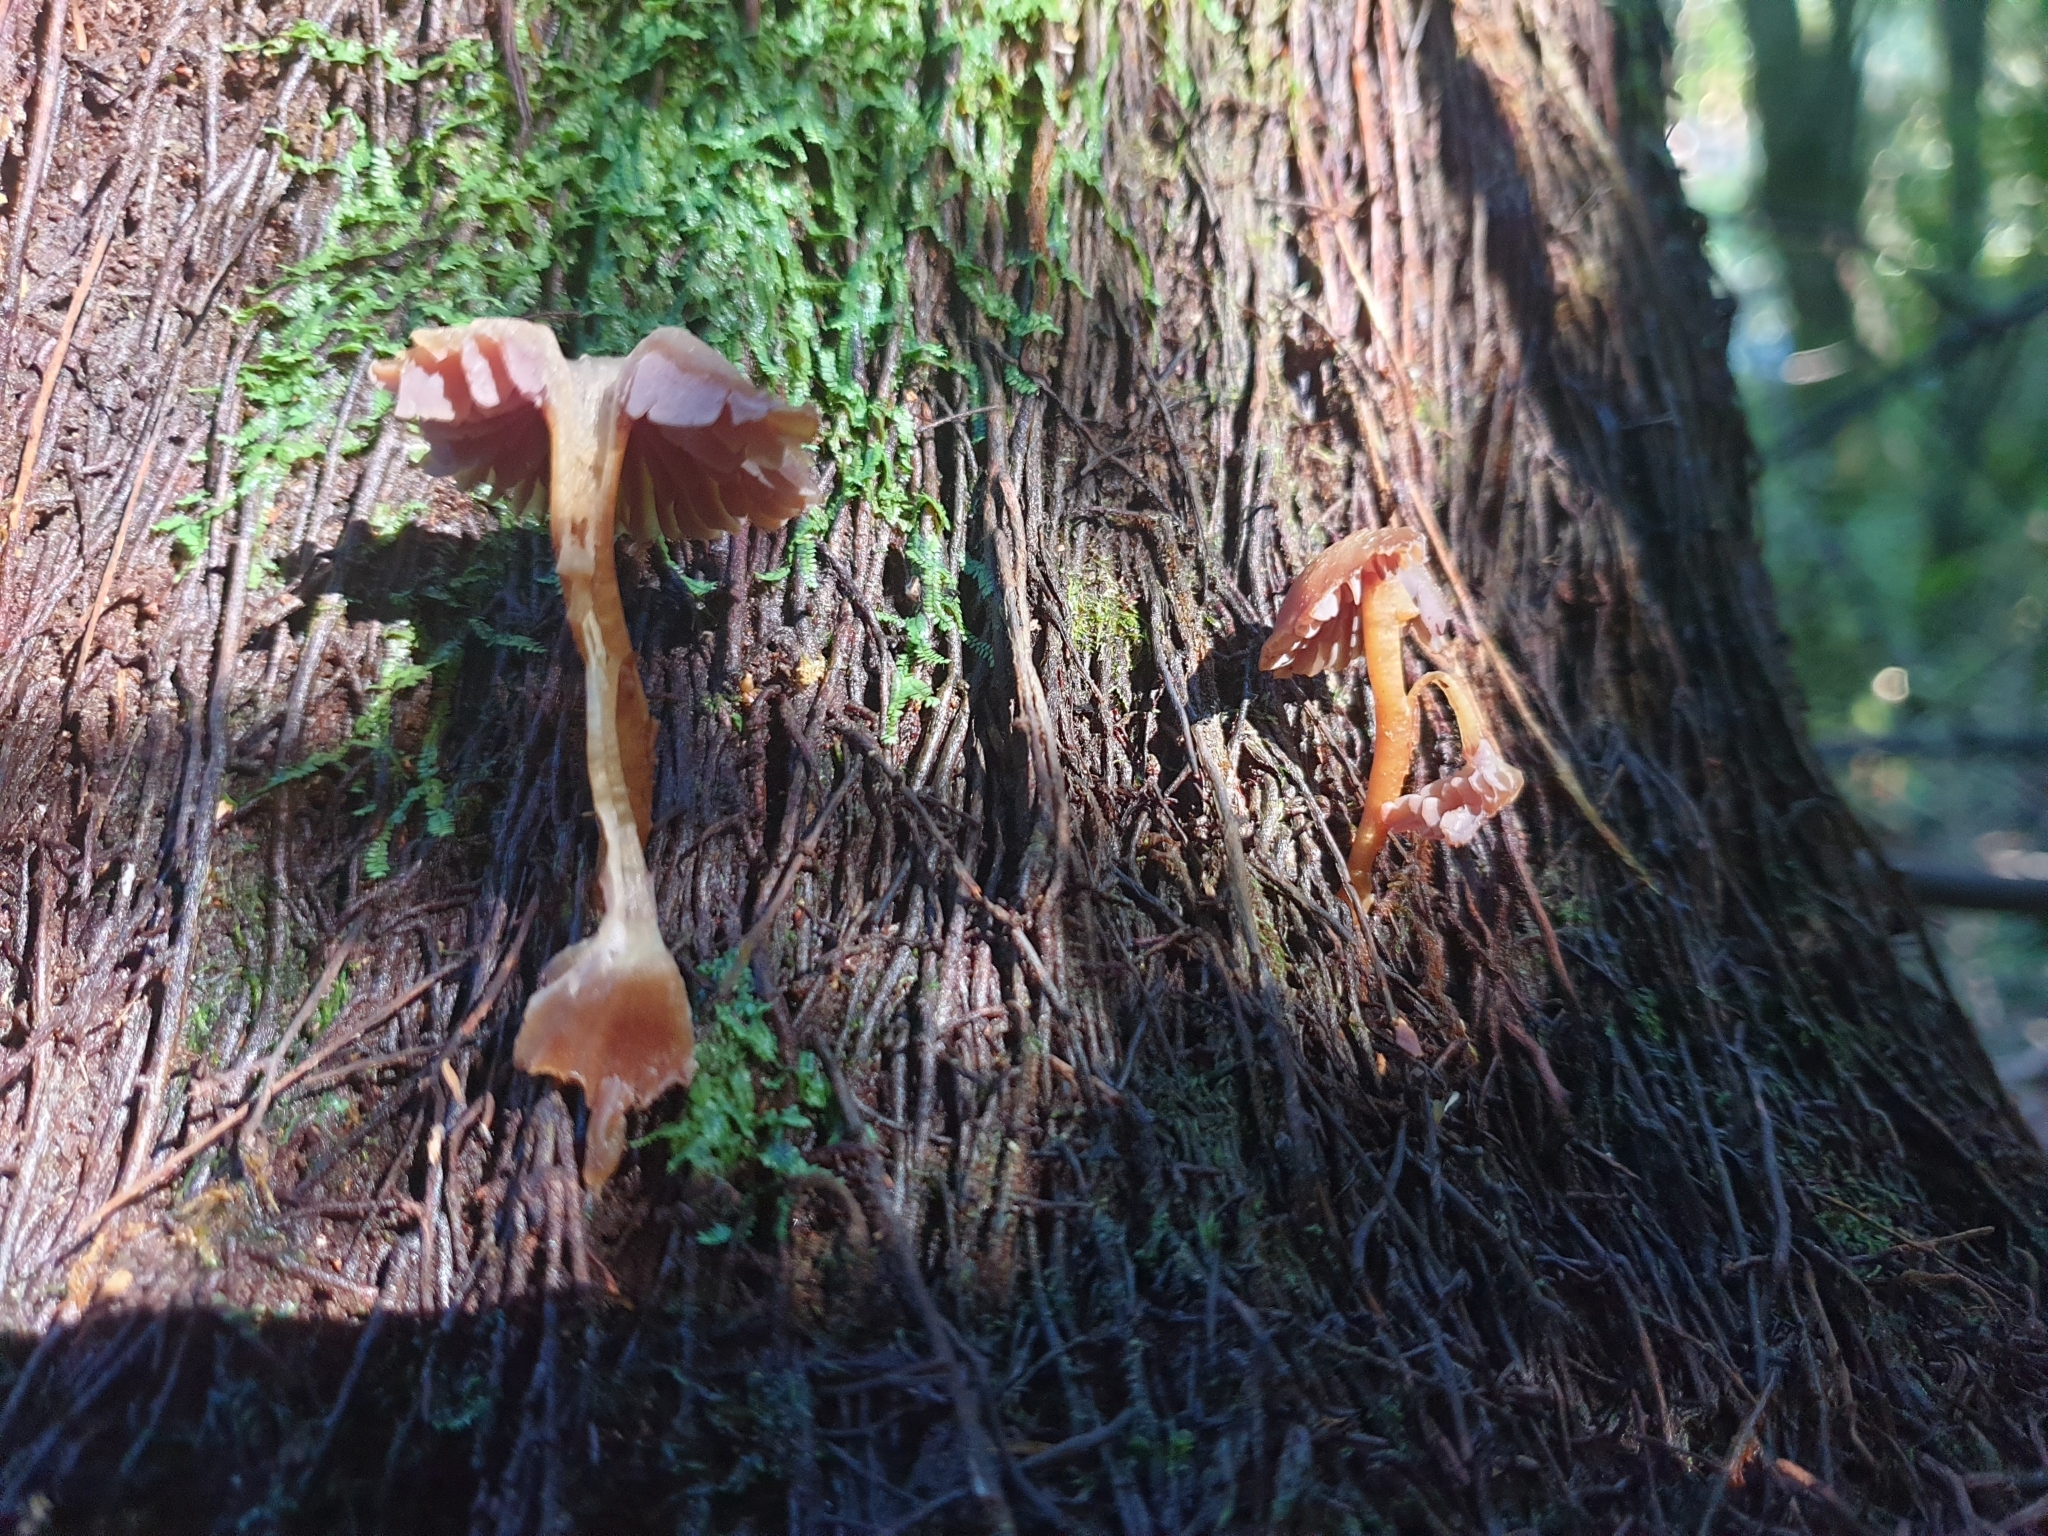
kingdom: Fungi
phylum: Basidiomycota
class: Agaricomycetes
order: Agaricales
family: Hygrophoraceae
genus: Hygrocybe
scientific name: Hygrocybe lilaceolamellata
